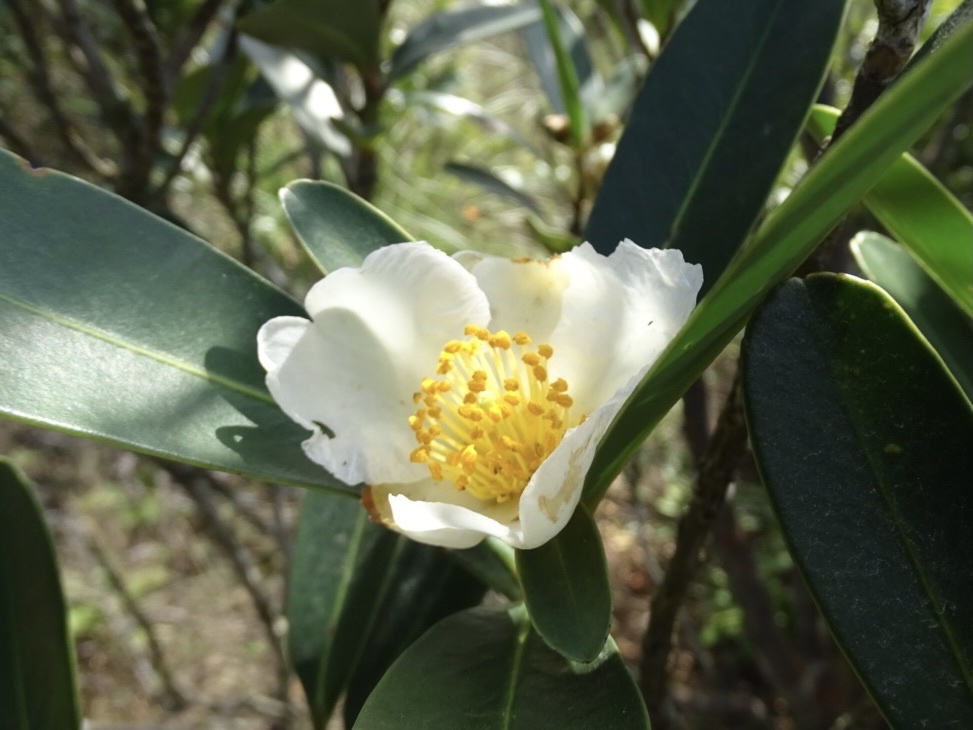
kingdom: Plantae
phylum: Tracheophyta
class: Magnoliopsida
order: Ericales
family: Theaceae
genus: Polyspora
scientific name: Polyspora axillaris
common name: Fried egg tree
